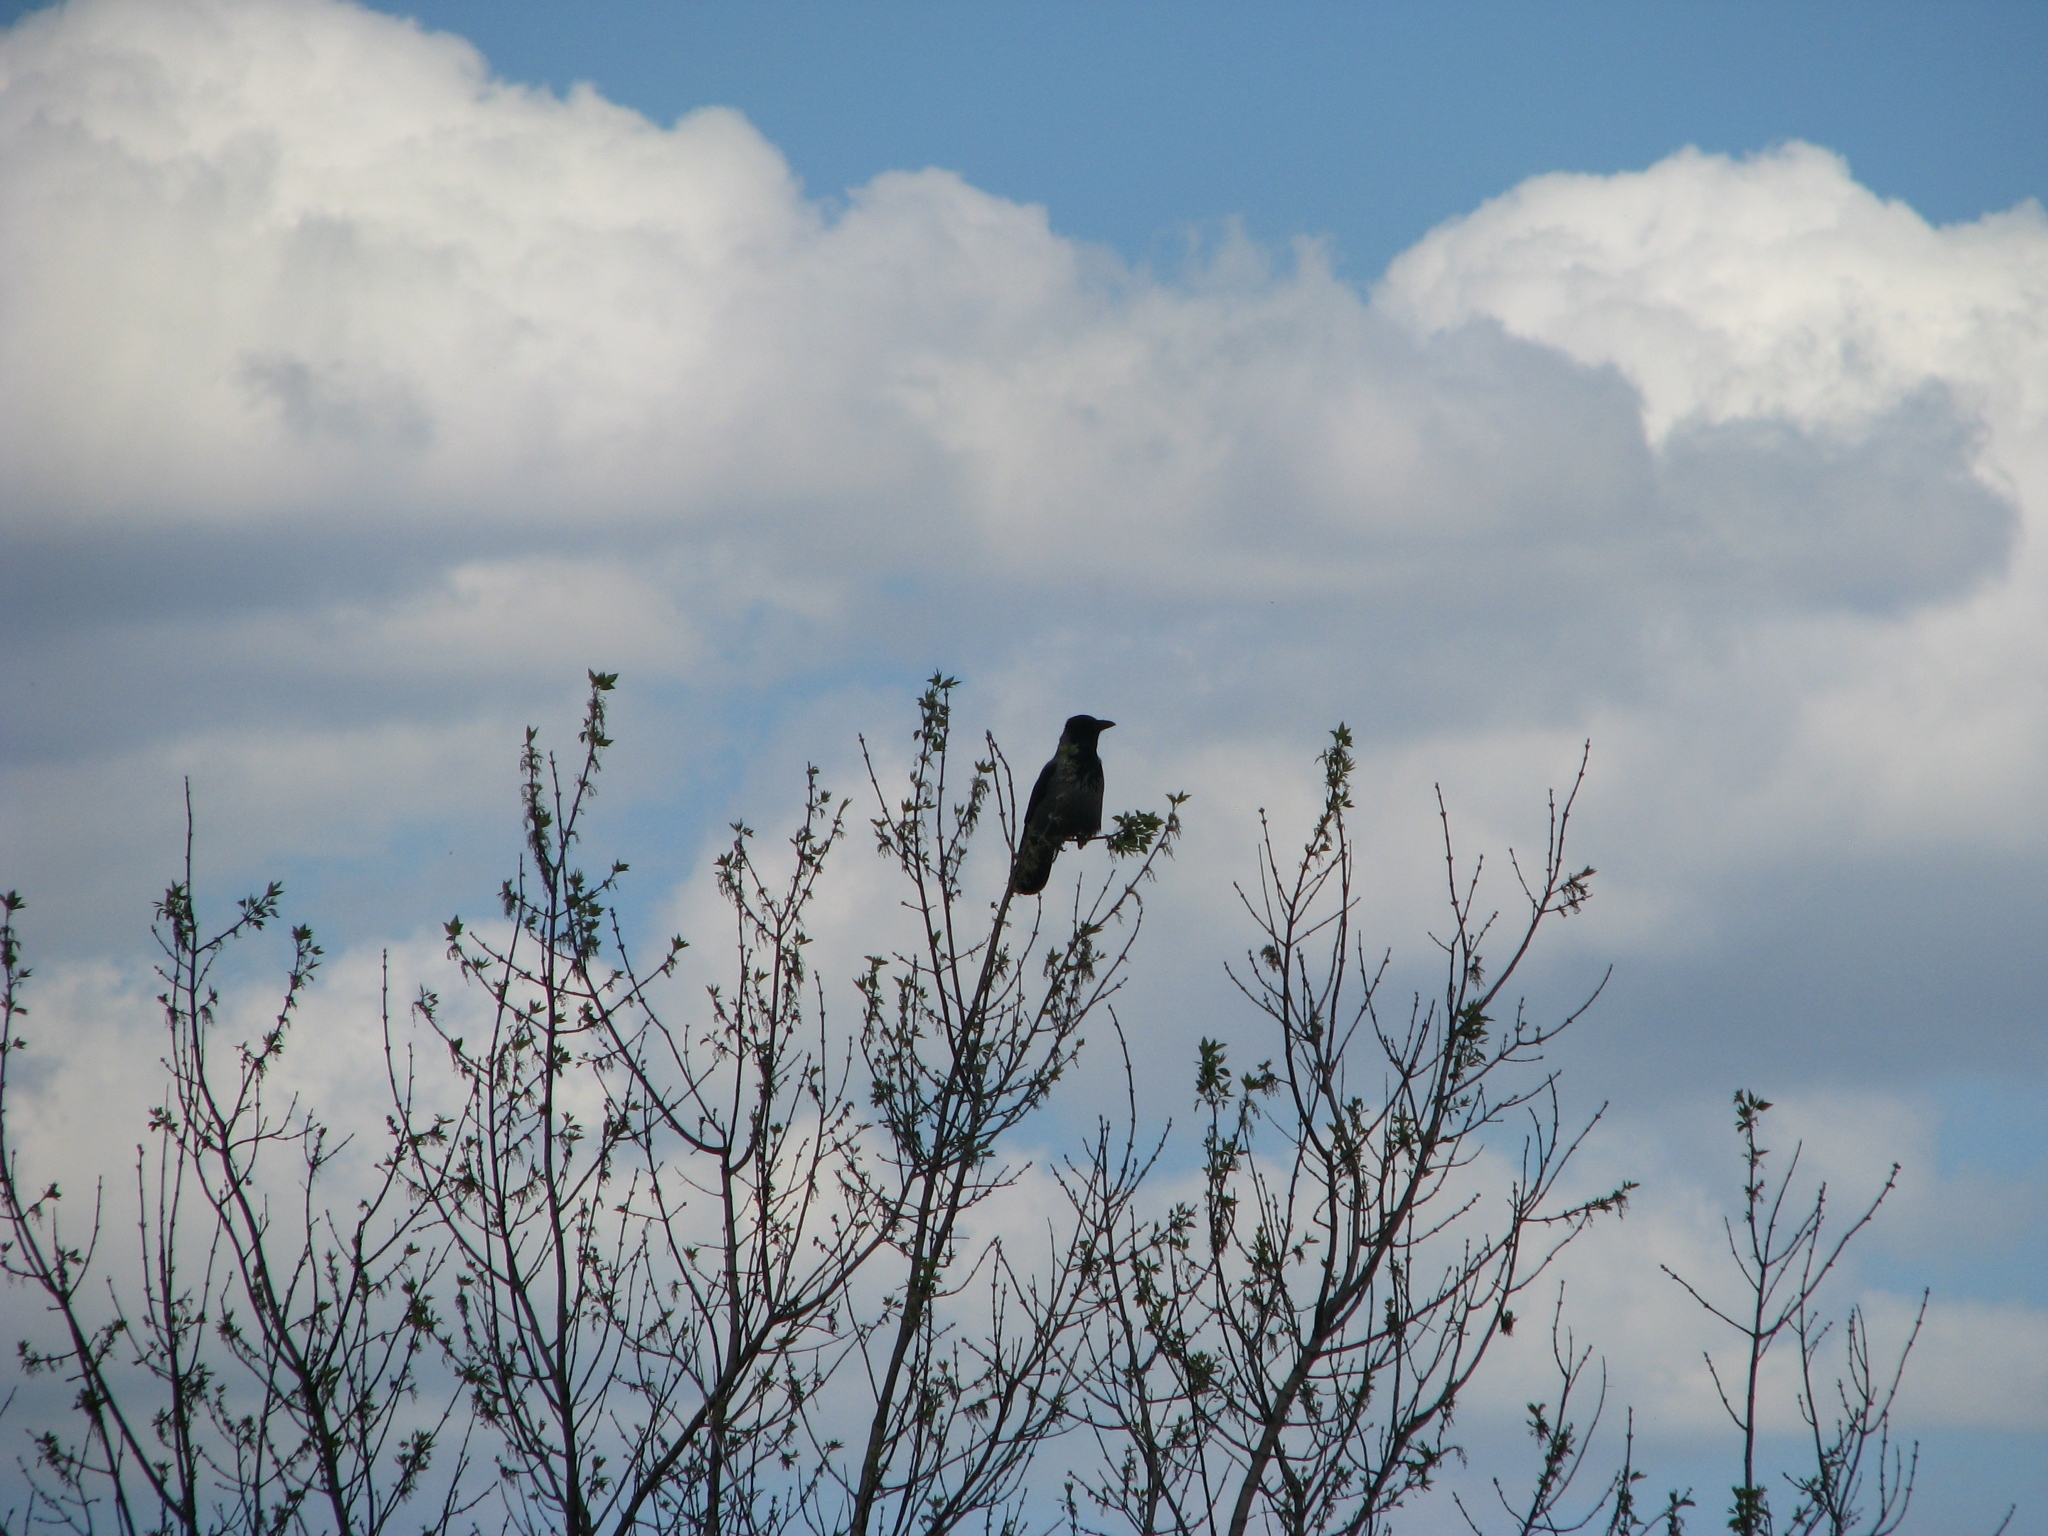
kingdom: Animalia
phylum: Chordata
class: Aves
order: Passeriformes
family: Corvidae
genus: Corvus
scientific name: Corvus cornix
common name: Hooded crow
